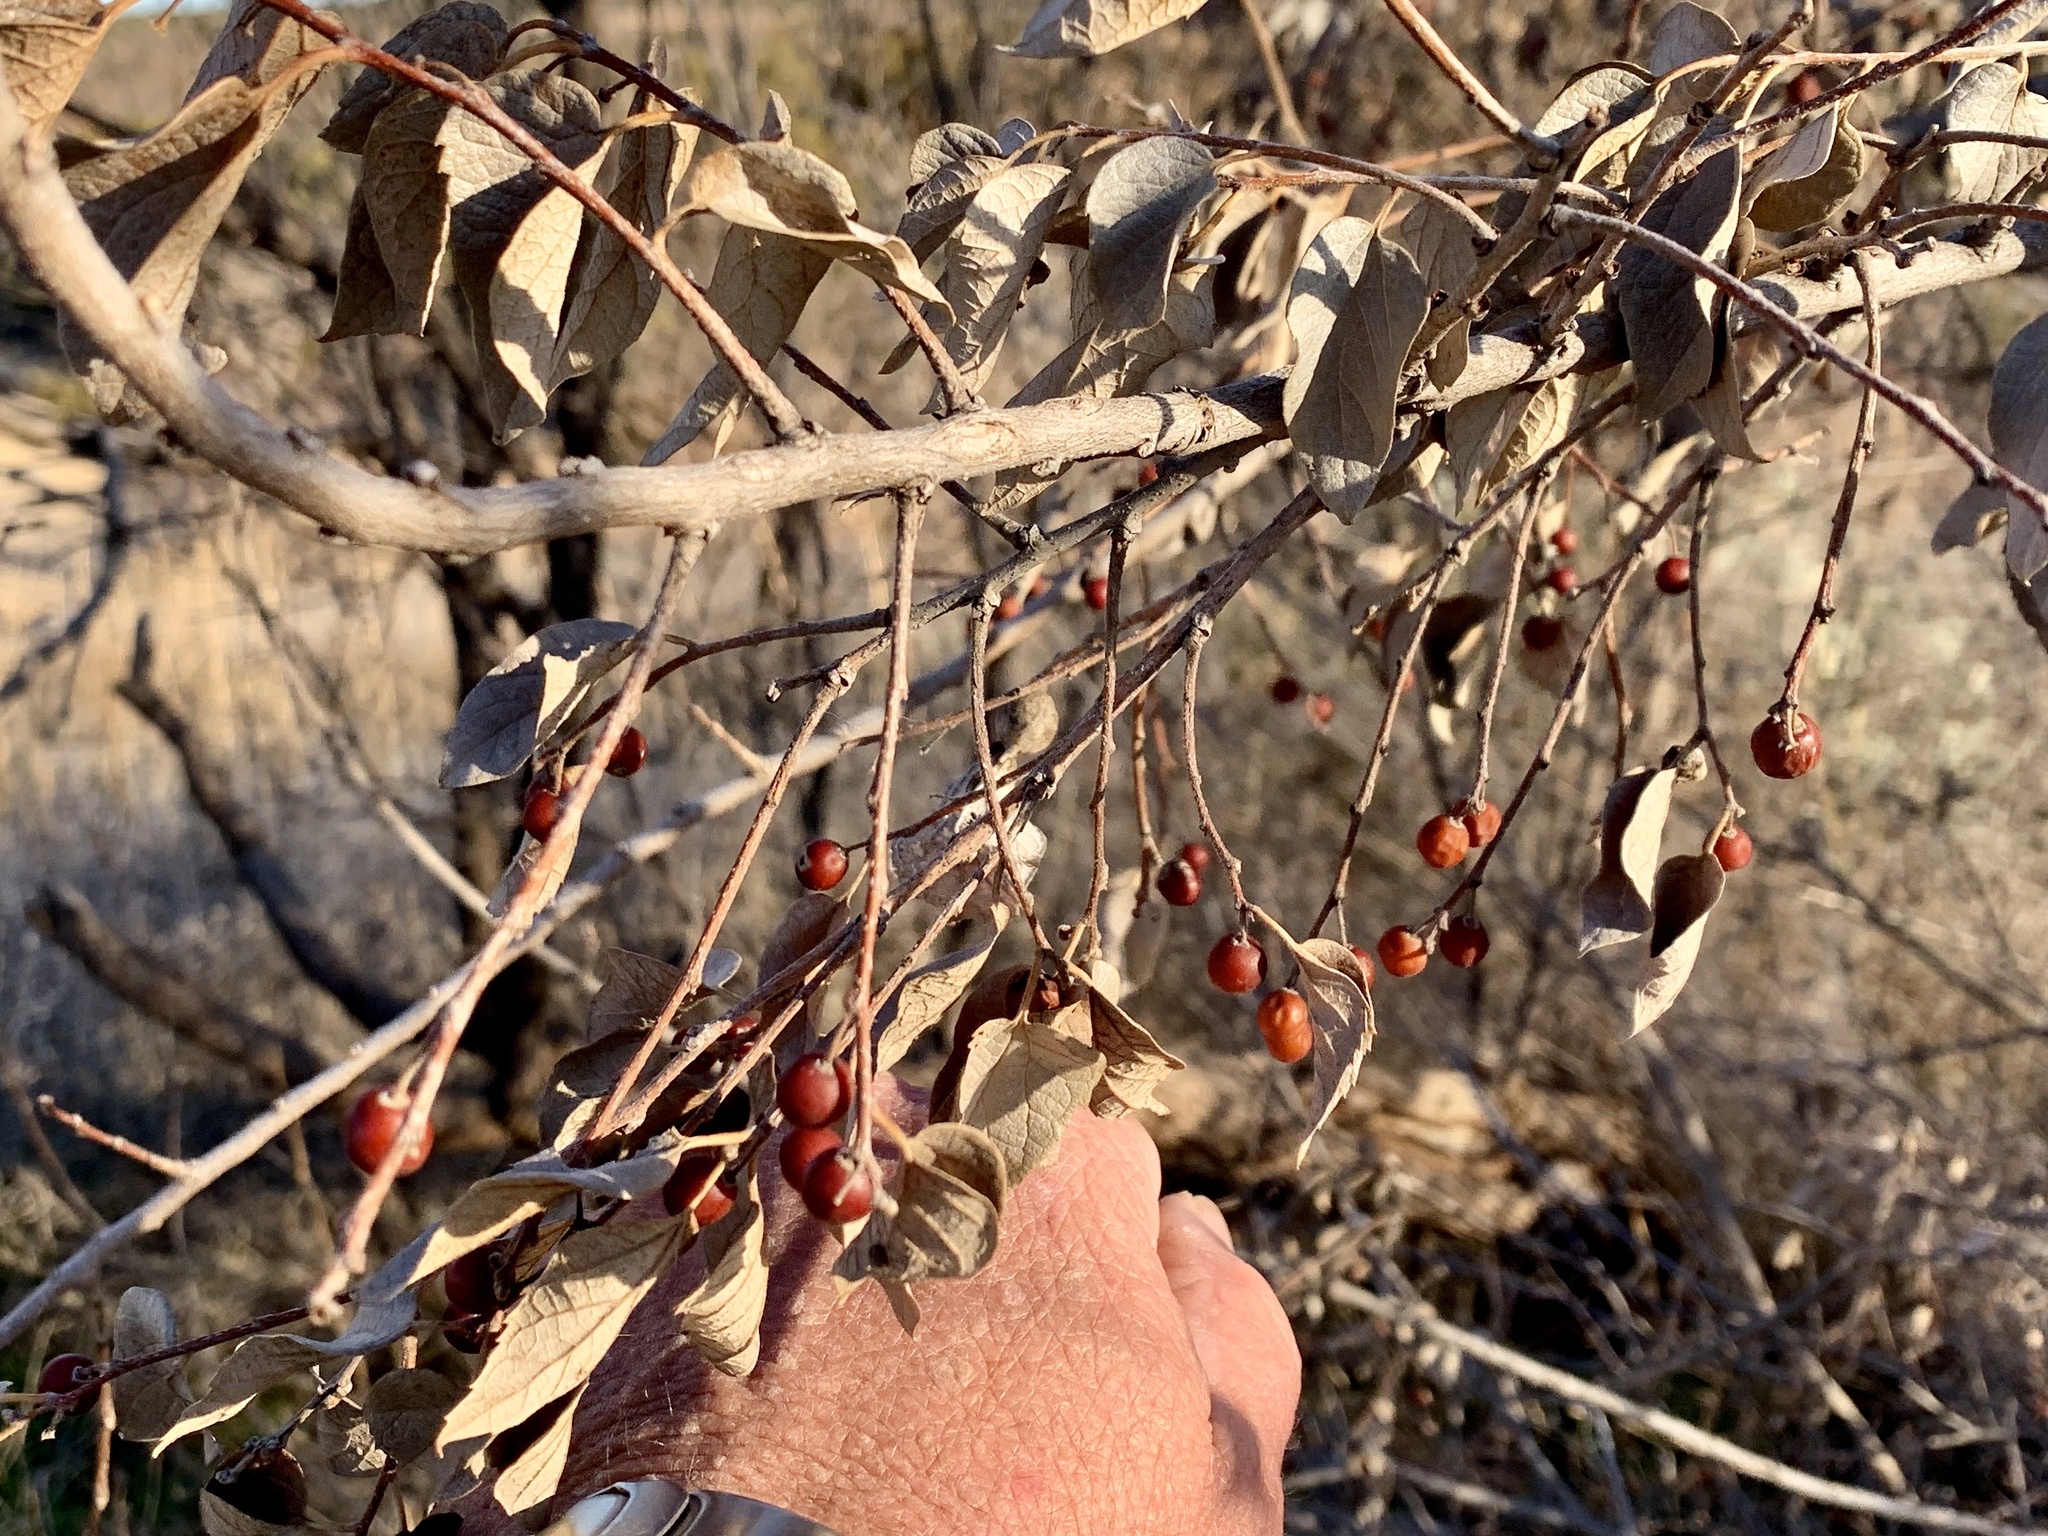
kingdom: Plantae
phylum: Tracheophyta
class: Magnoliopsida
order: Rosales
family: Cannabaceae
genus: Celtis
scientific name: Celtis reticulata
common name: Netleaf hackberry
